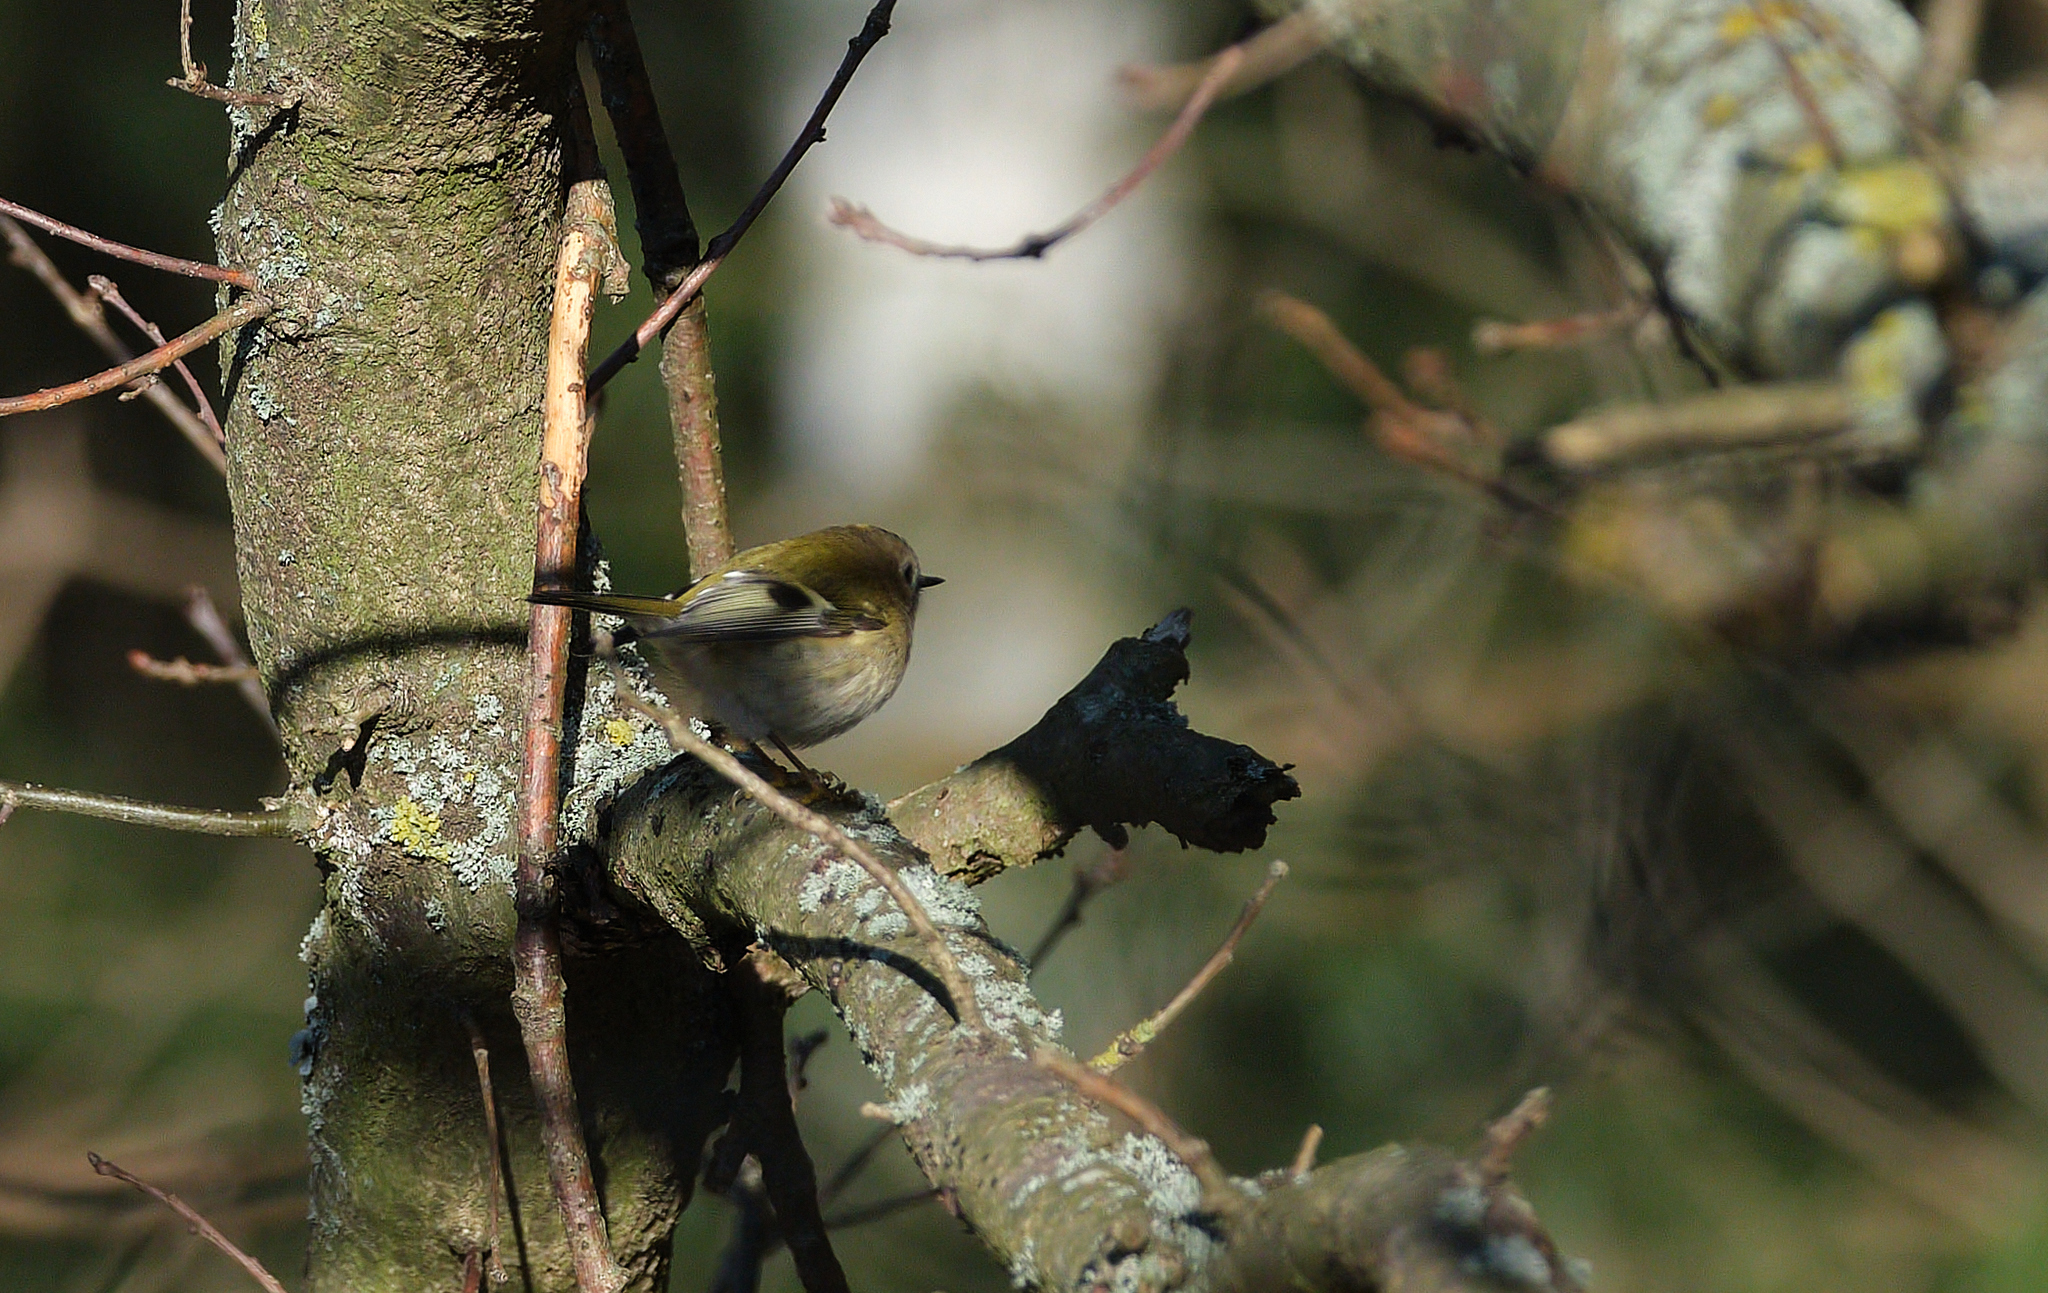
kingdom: Animalia
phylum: Chordata
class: Aves
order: Passeriformes
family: Regulidae
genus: Regulus
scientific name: Regulus regulus
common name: Goldcrest
